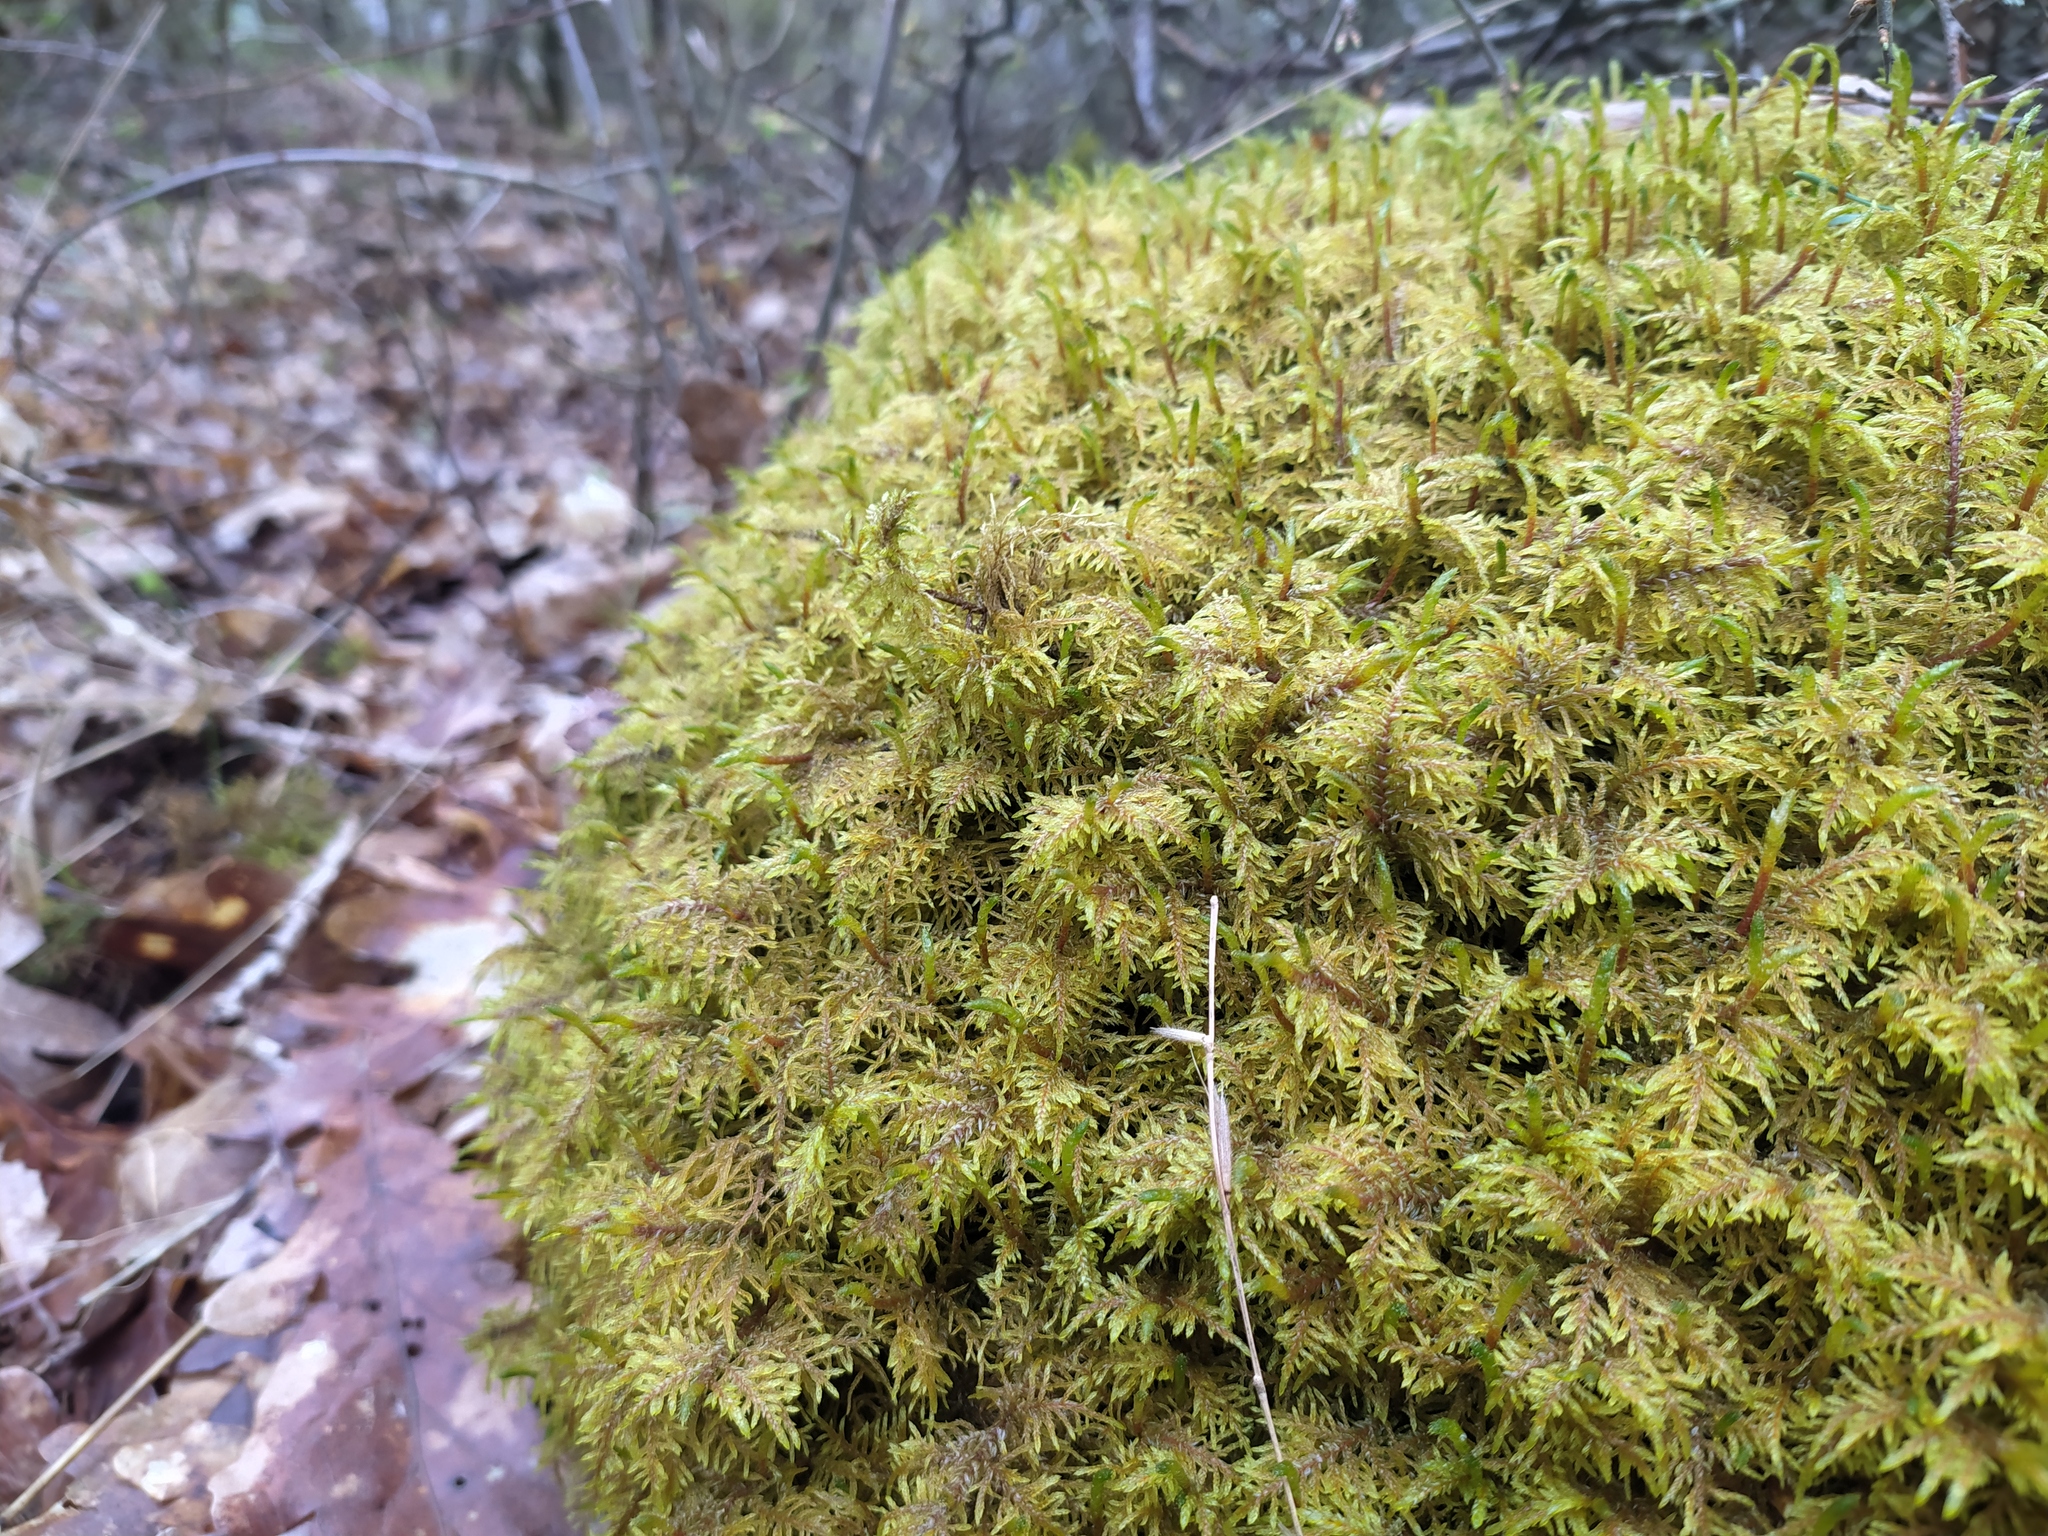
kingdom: Plantae
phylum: Bryophyta
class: Bryopsida
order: Hypnales
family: Hylocomiaceae
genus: Hylocomium
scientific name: Hylocomium splendens
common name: Stairstep moss
